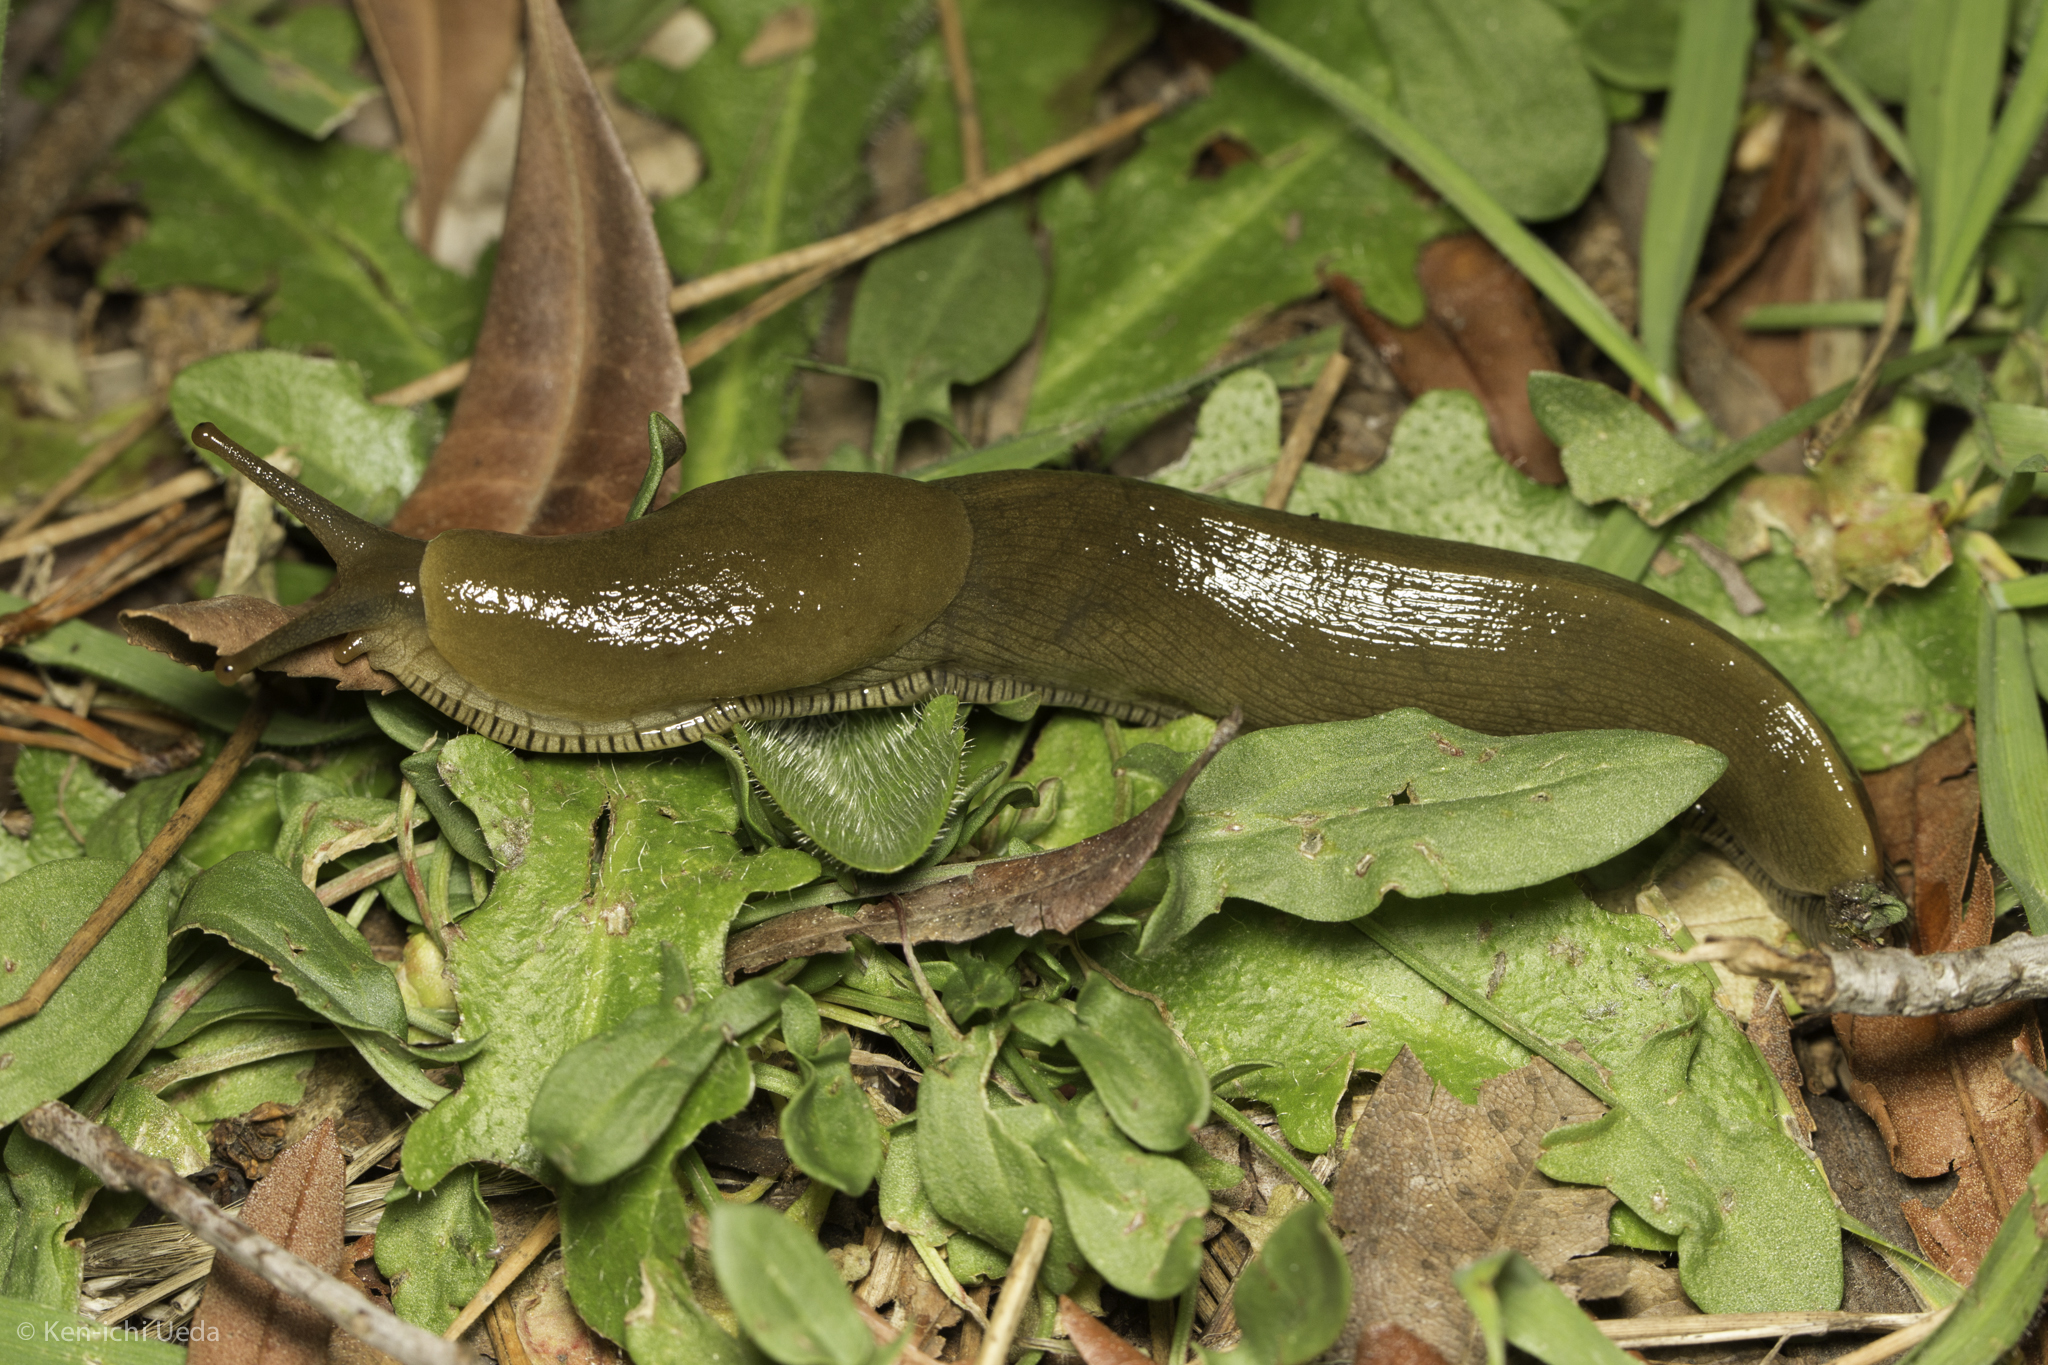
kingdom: Animalia
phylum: Mollusca
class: Gastropoda
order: Stylommatophora
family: Ariolimacidae
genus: Ariolimax
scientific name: Ariolimax buttoni
